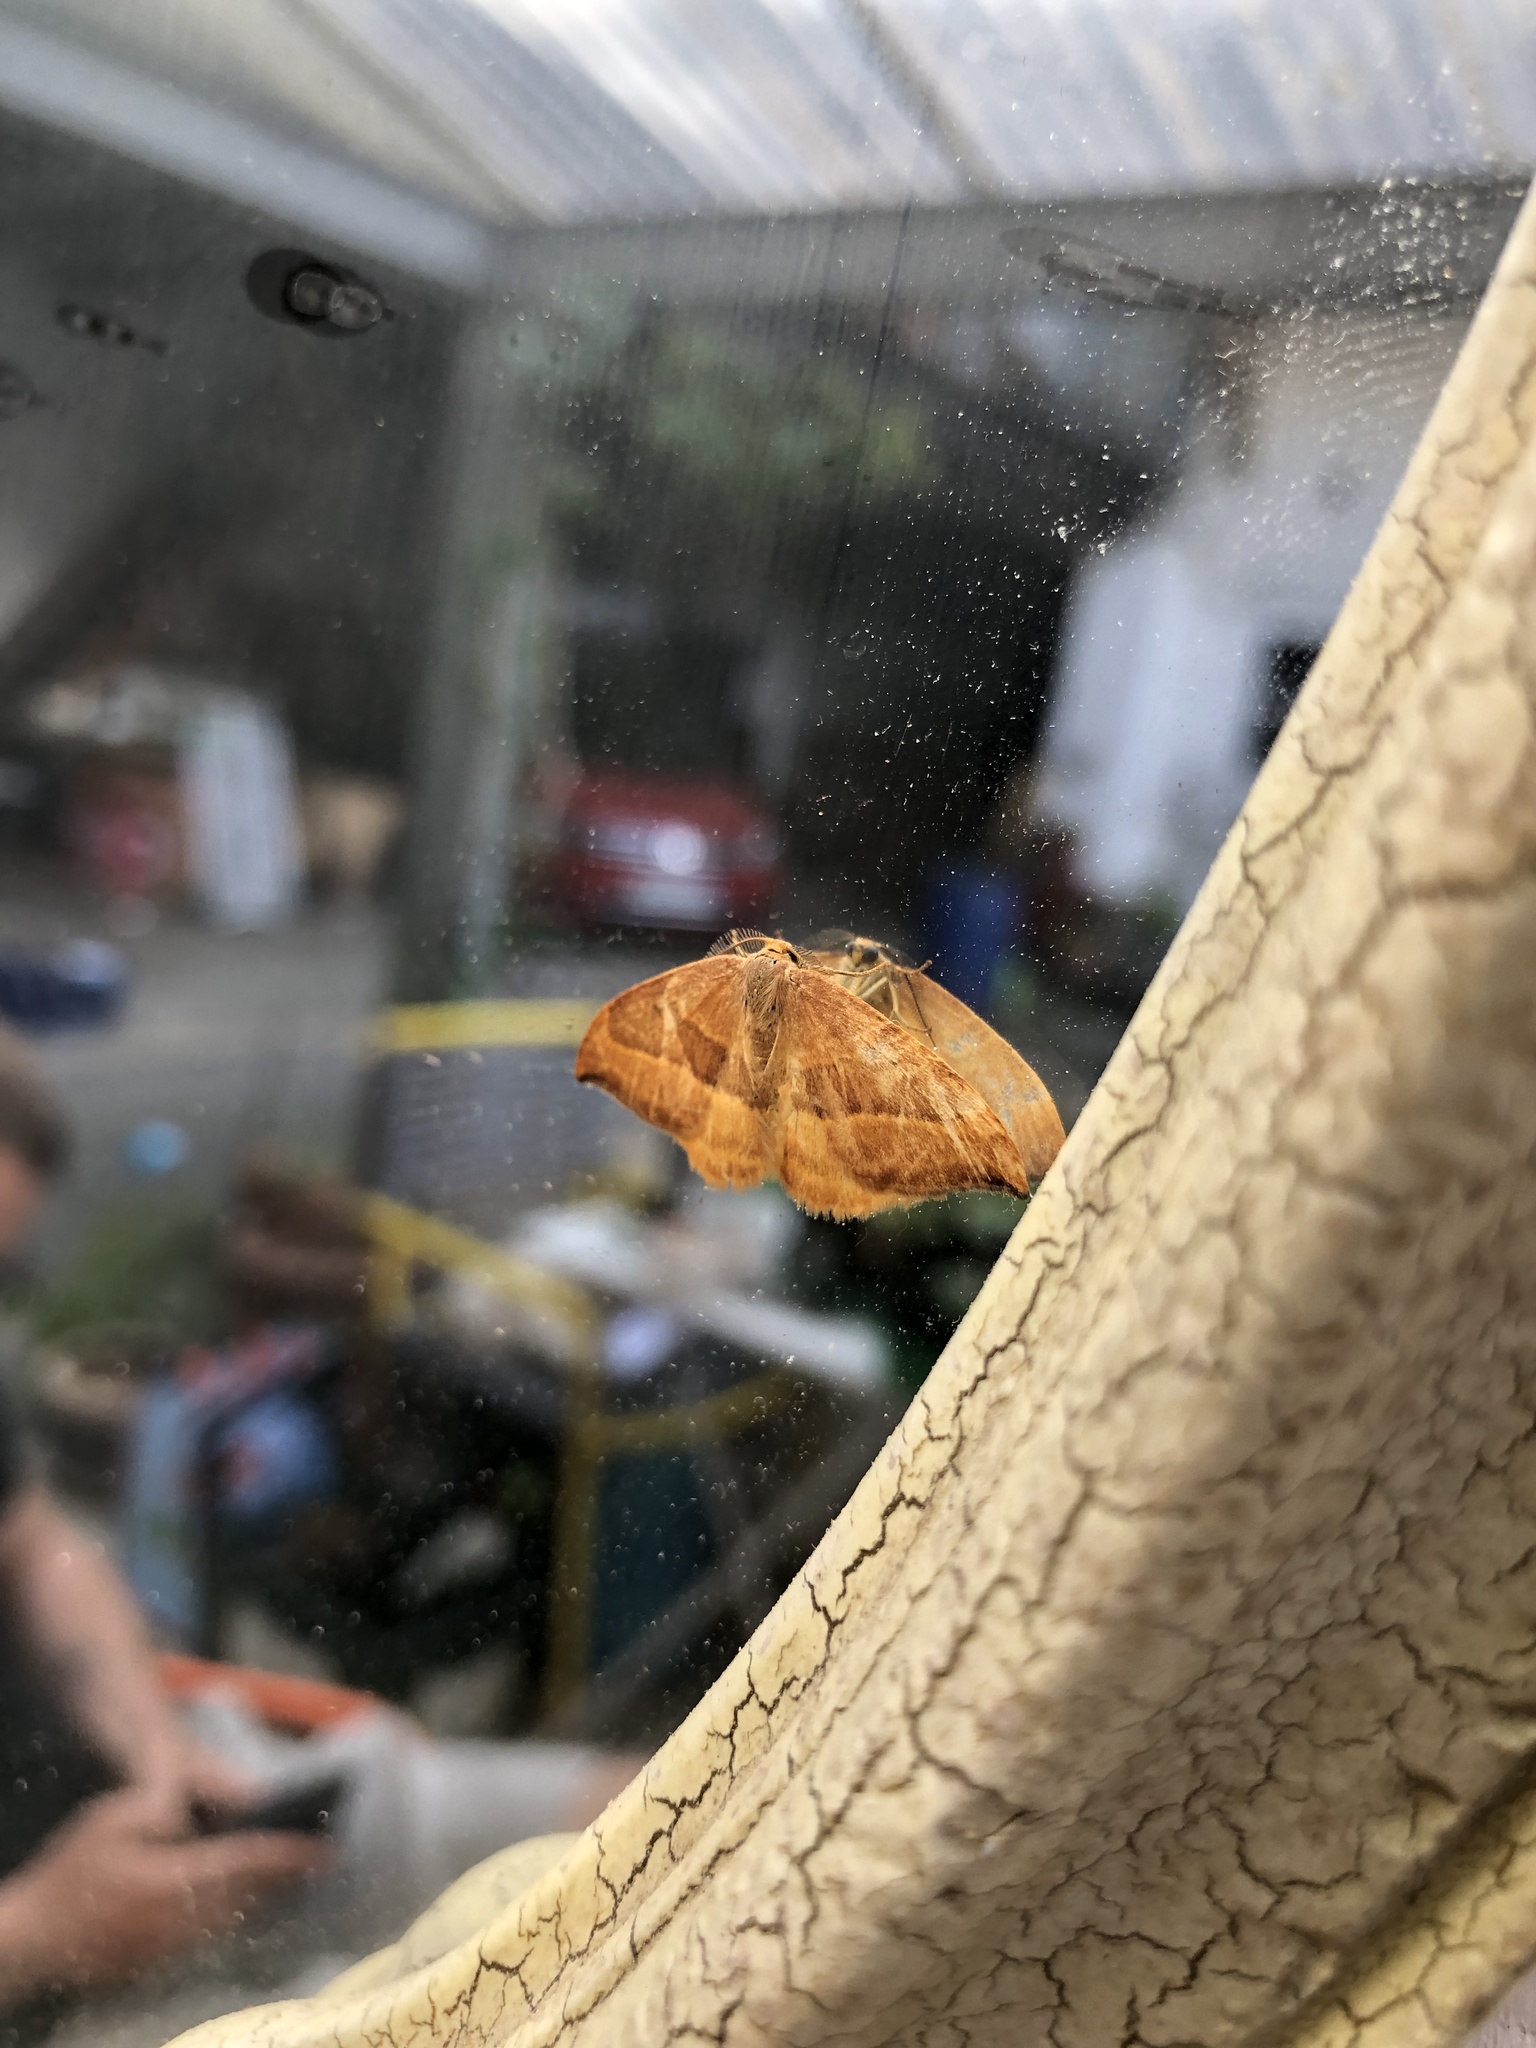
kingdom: Animalia
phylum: Arthropoda
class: Insecta
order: Lepidoptera
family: Drepanidae
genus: Watsonalla
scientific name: Watsonalla cultraria
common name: Barred hook-tip
